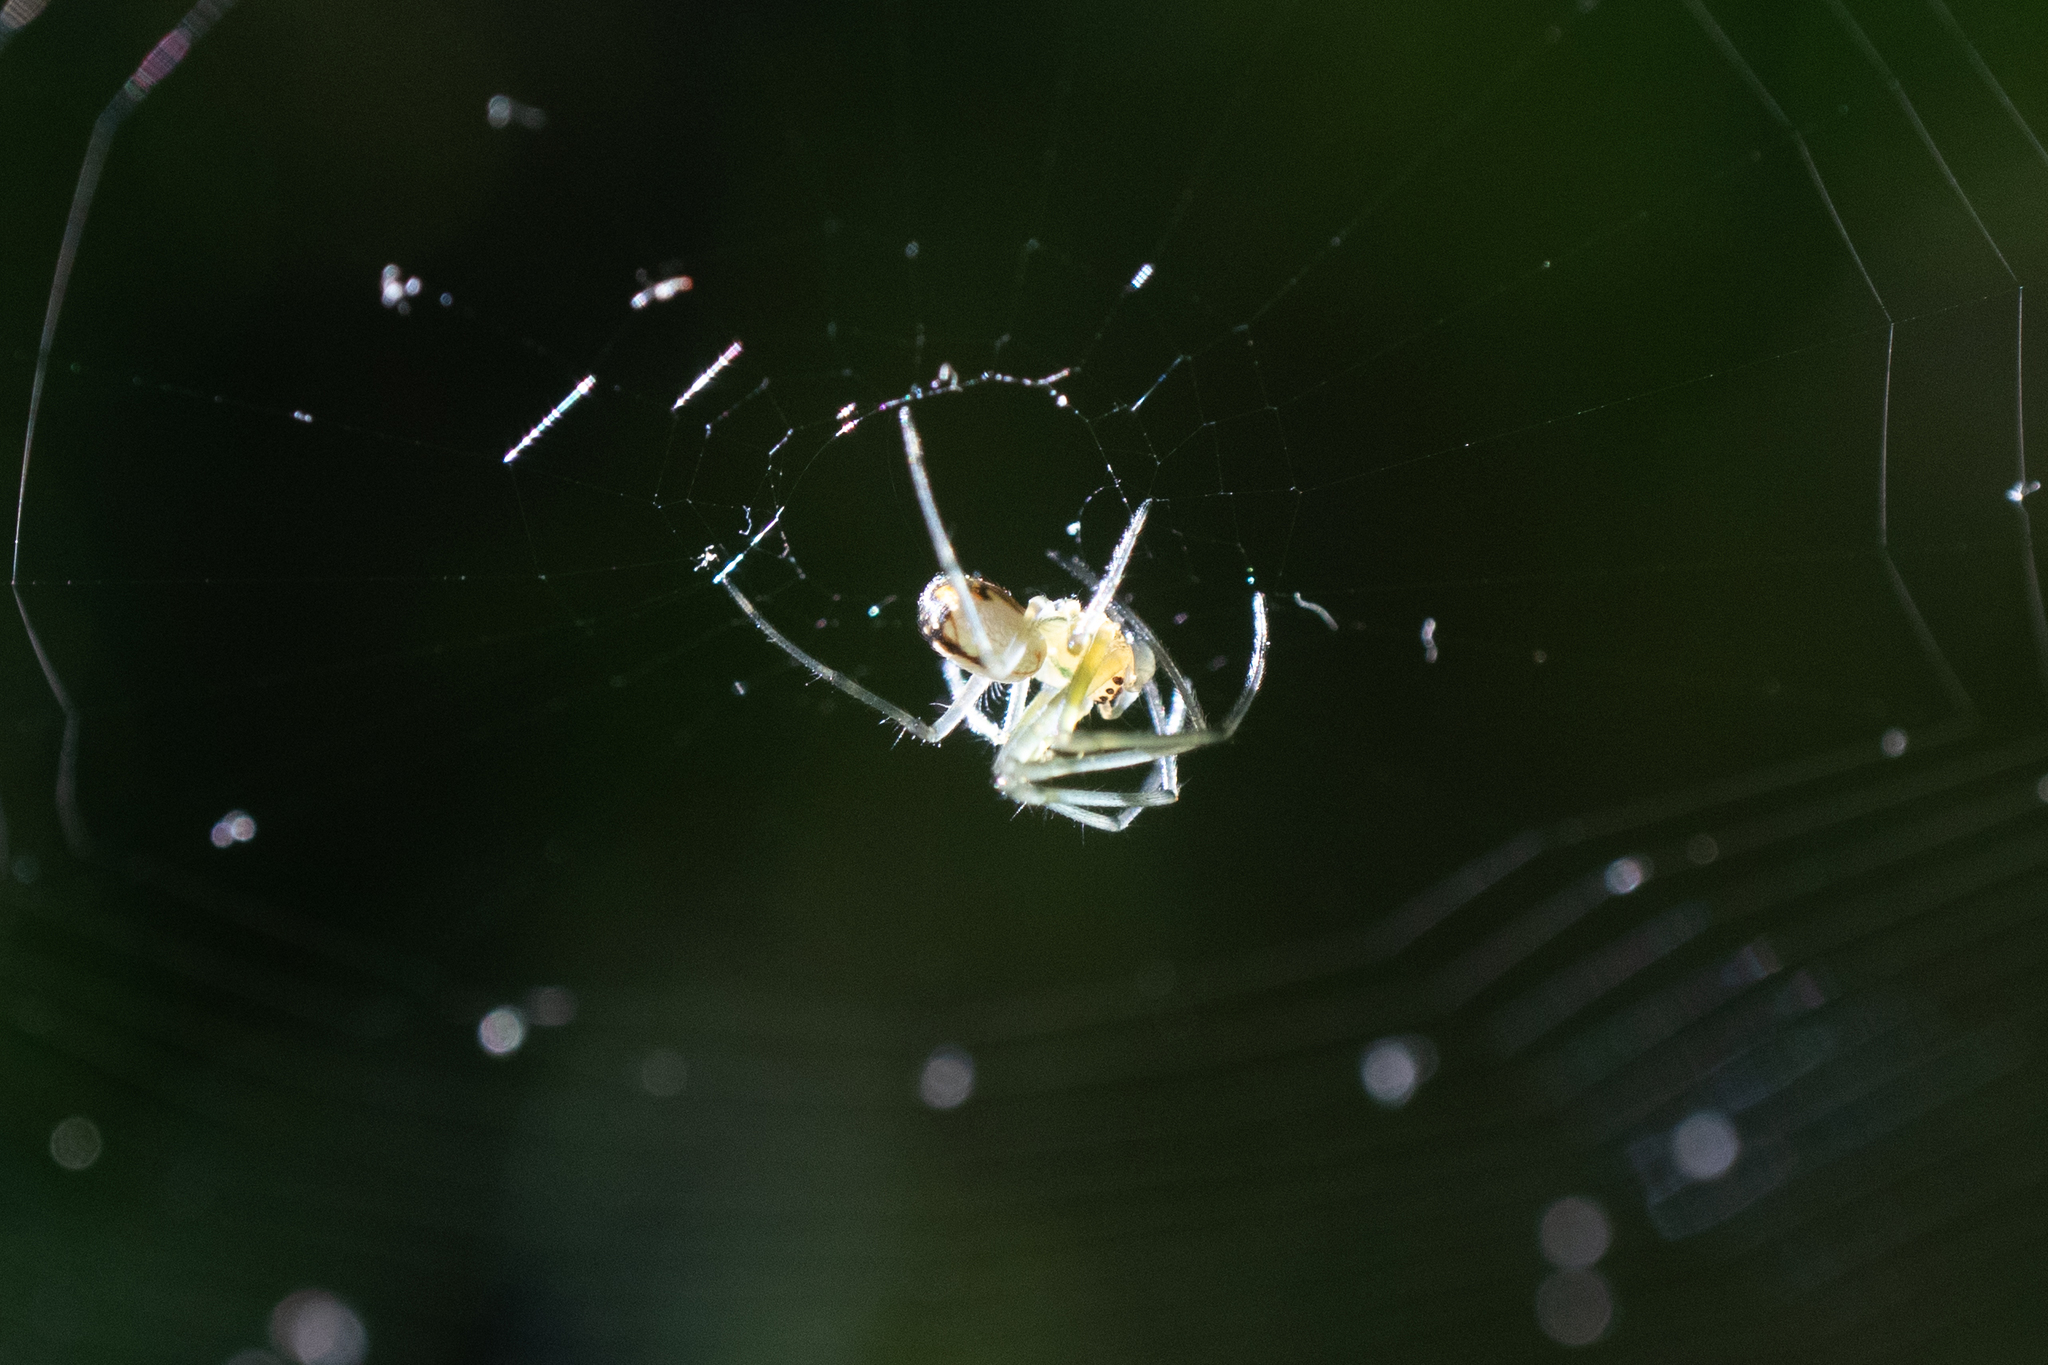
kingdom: Animalia
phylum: Arthropoda
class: Arachnida
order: Araneae
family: Tetragnathidae
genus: Leucauge
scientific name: Leucauge
